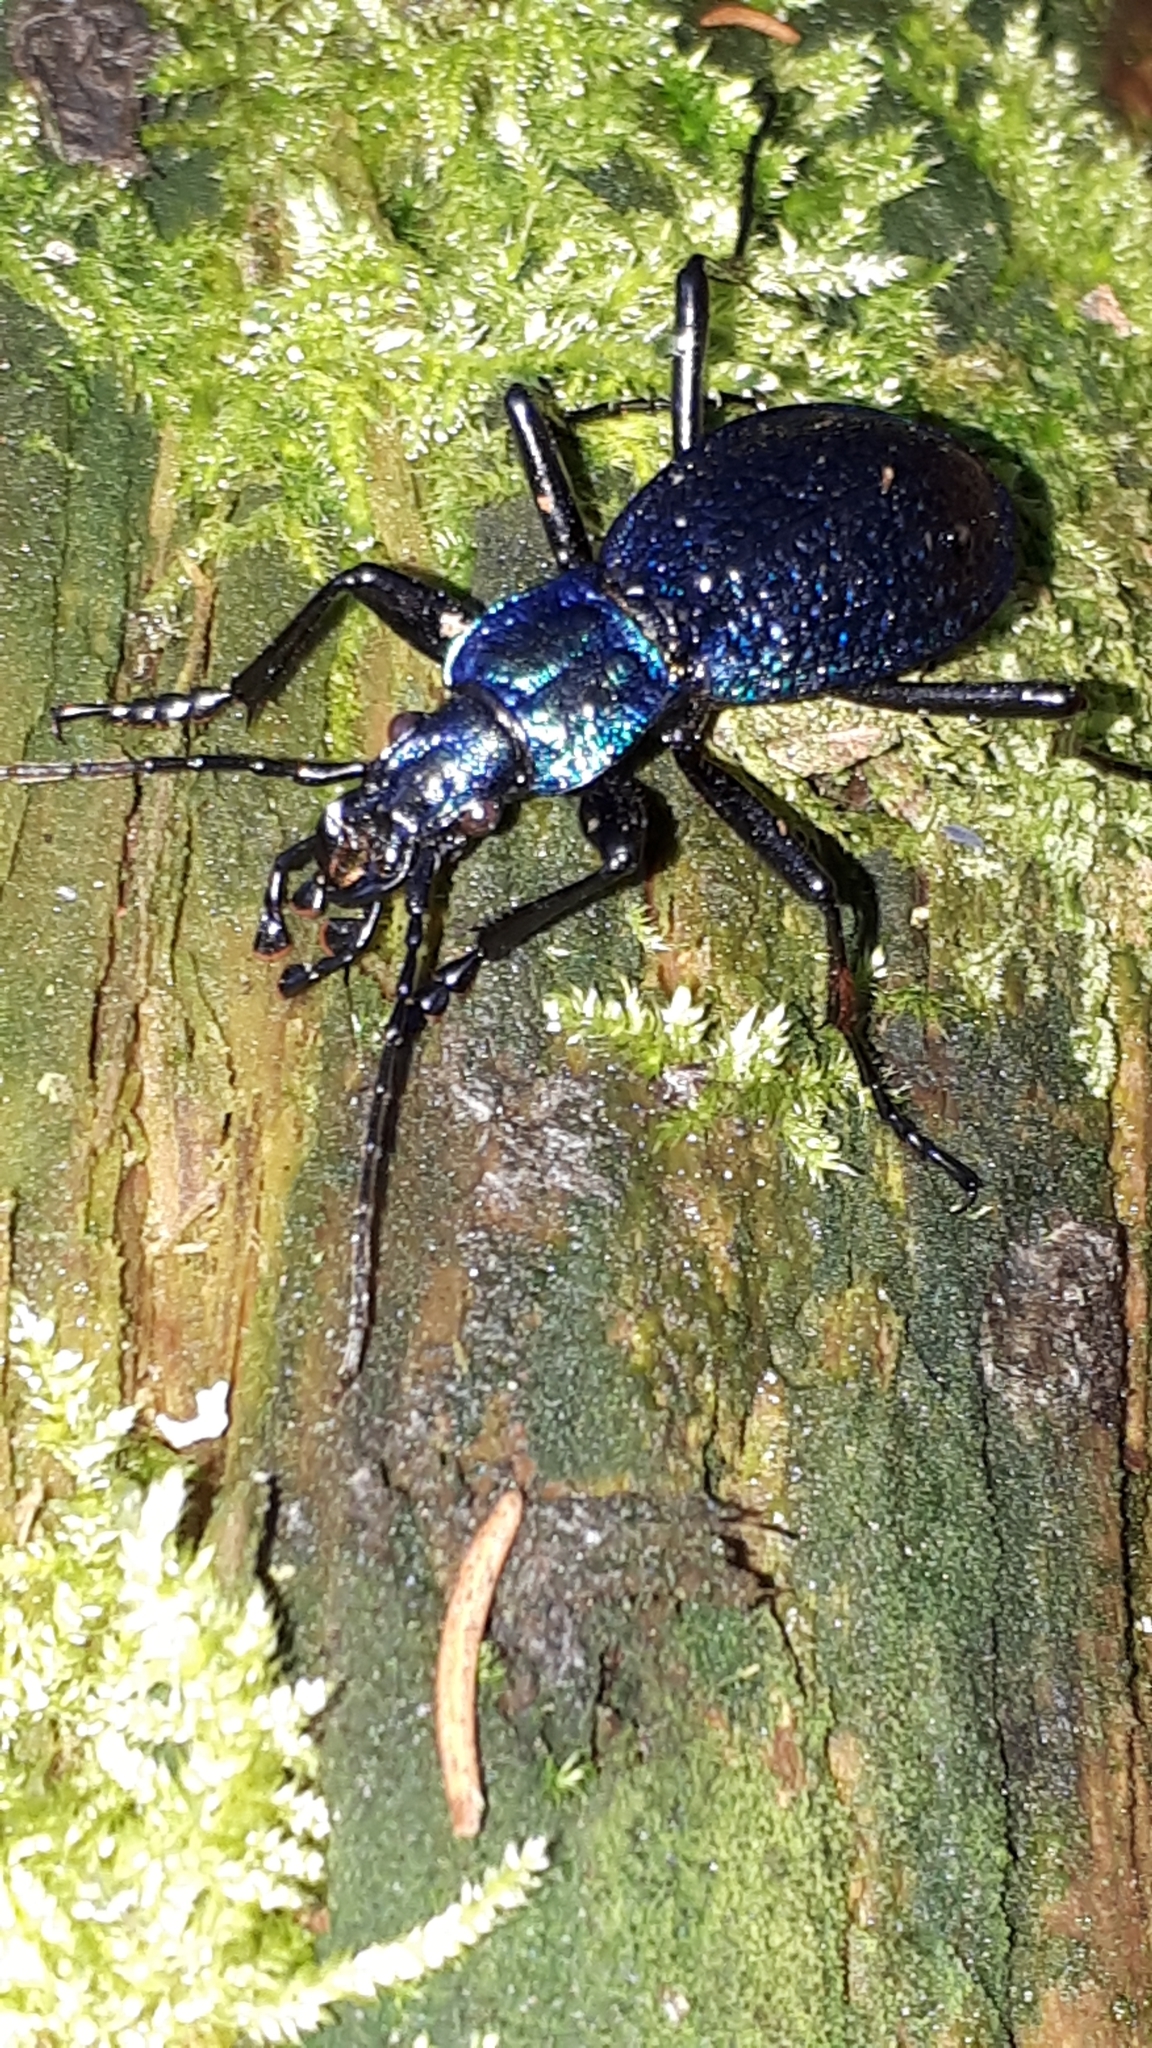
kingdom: Animalia
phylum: Arthropoda
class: Insecta
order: Coleoptera
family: Carabidae
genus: Carabus
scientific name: Carabus intricatus
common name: Blue ground beetle
